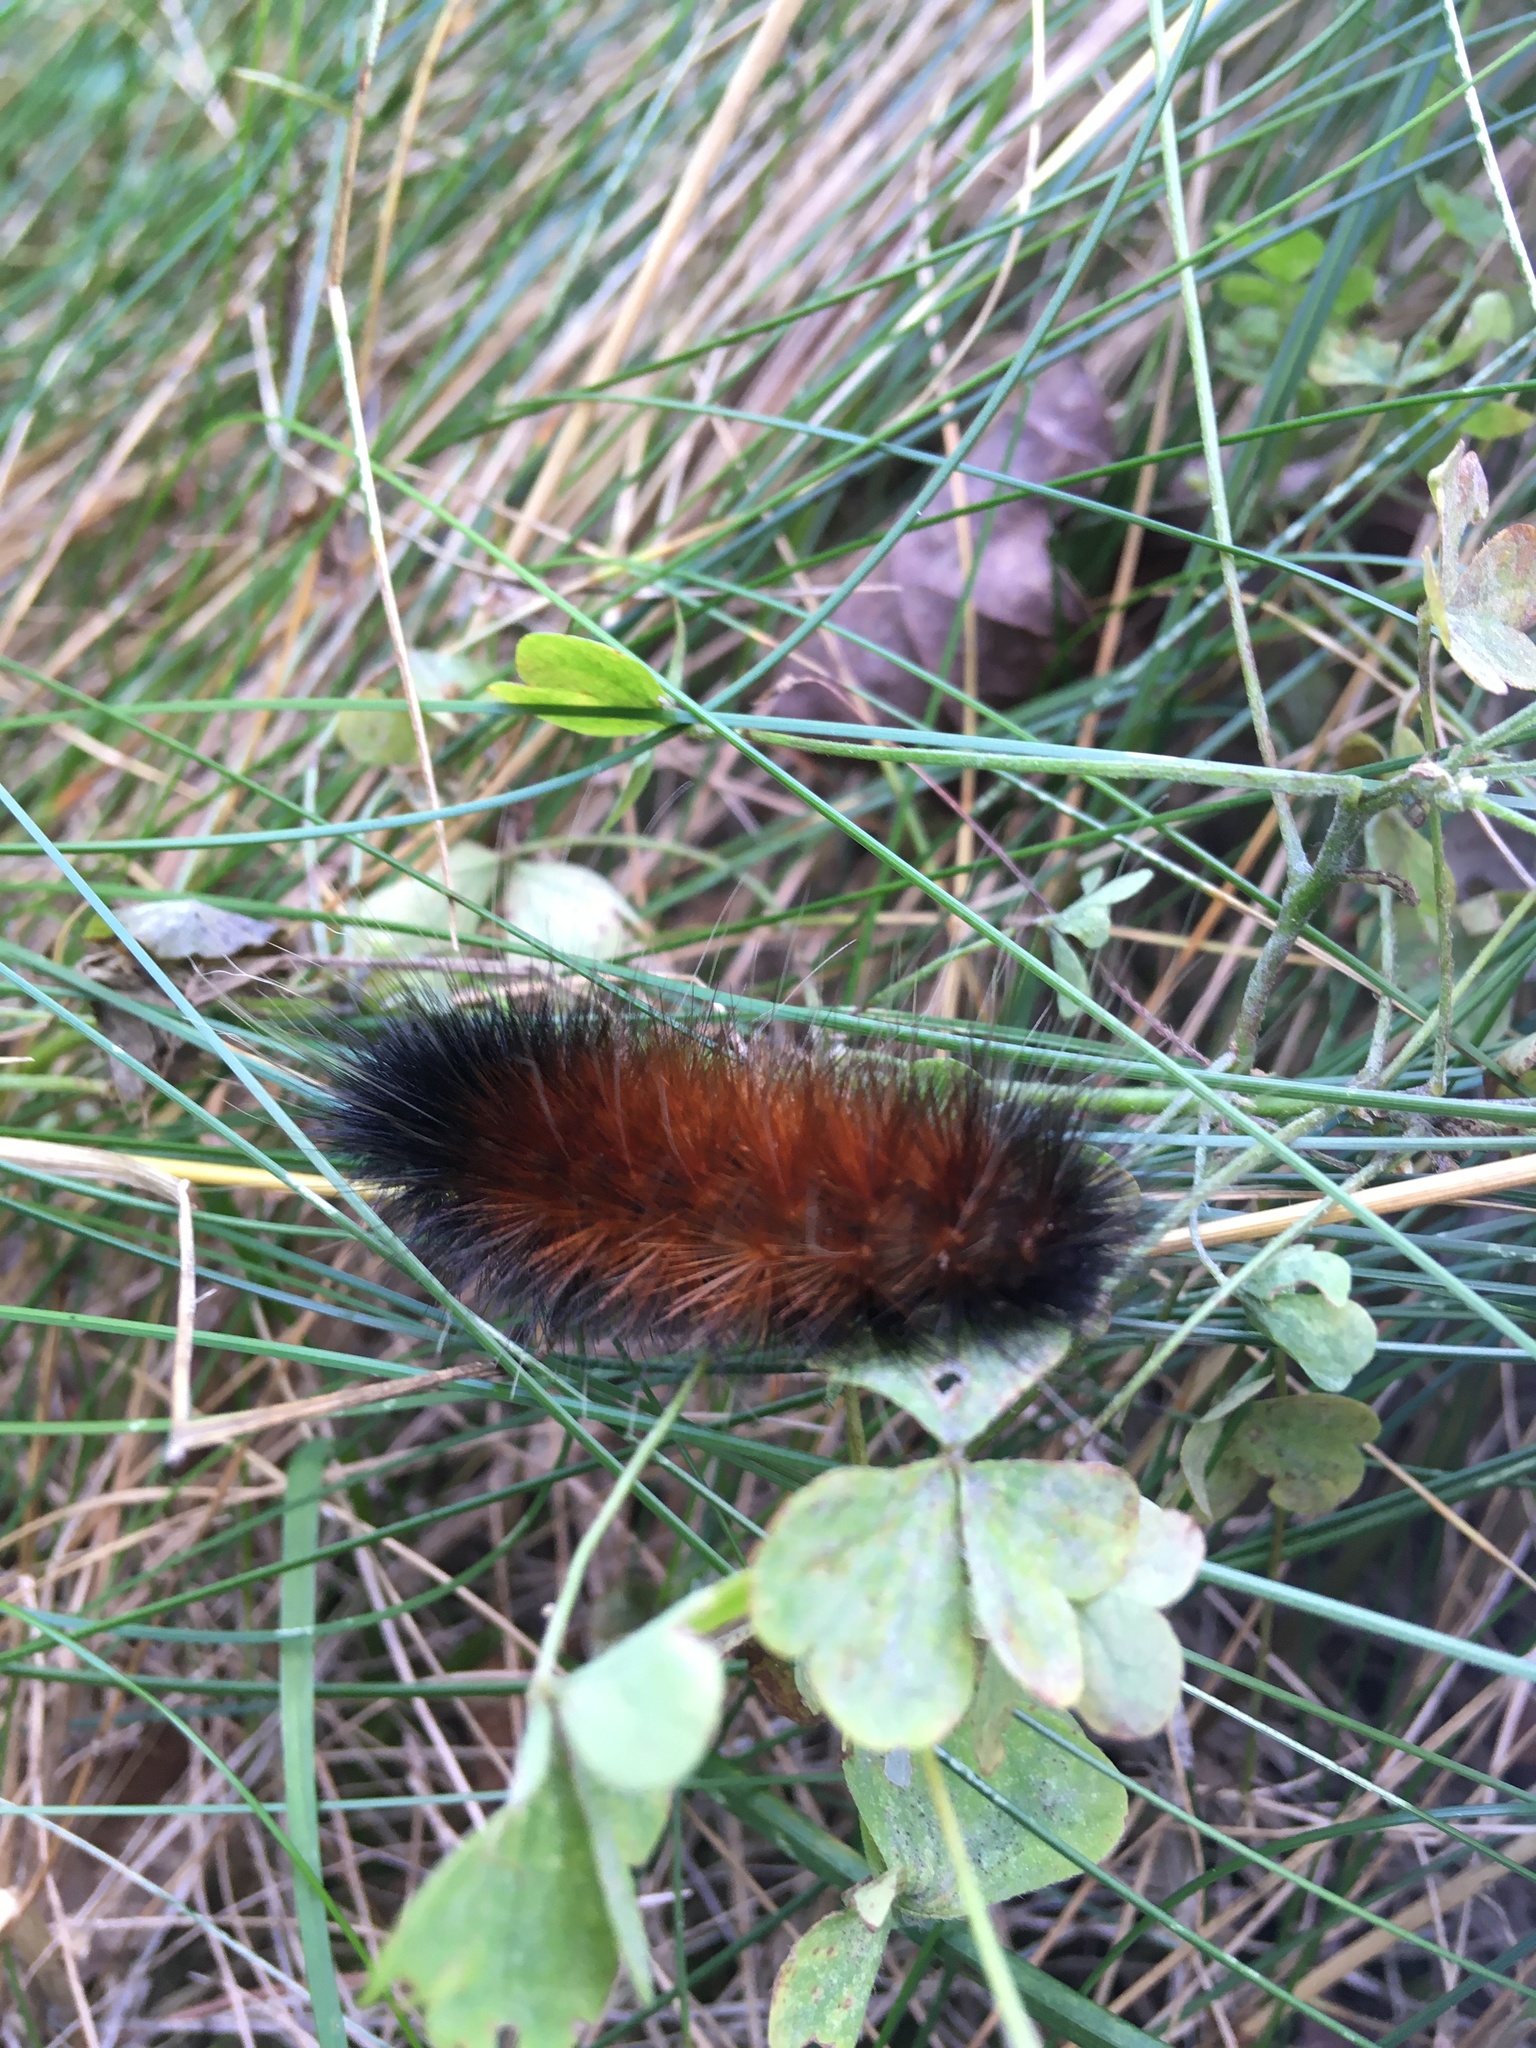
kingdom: Animalia
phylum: Arthropoda
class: Insecta
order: Lepidoptera
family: Erebidae
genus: Pyrrharctia
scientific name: Pyrrharctia isabella
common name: Isabella tiger moth
